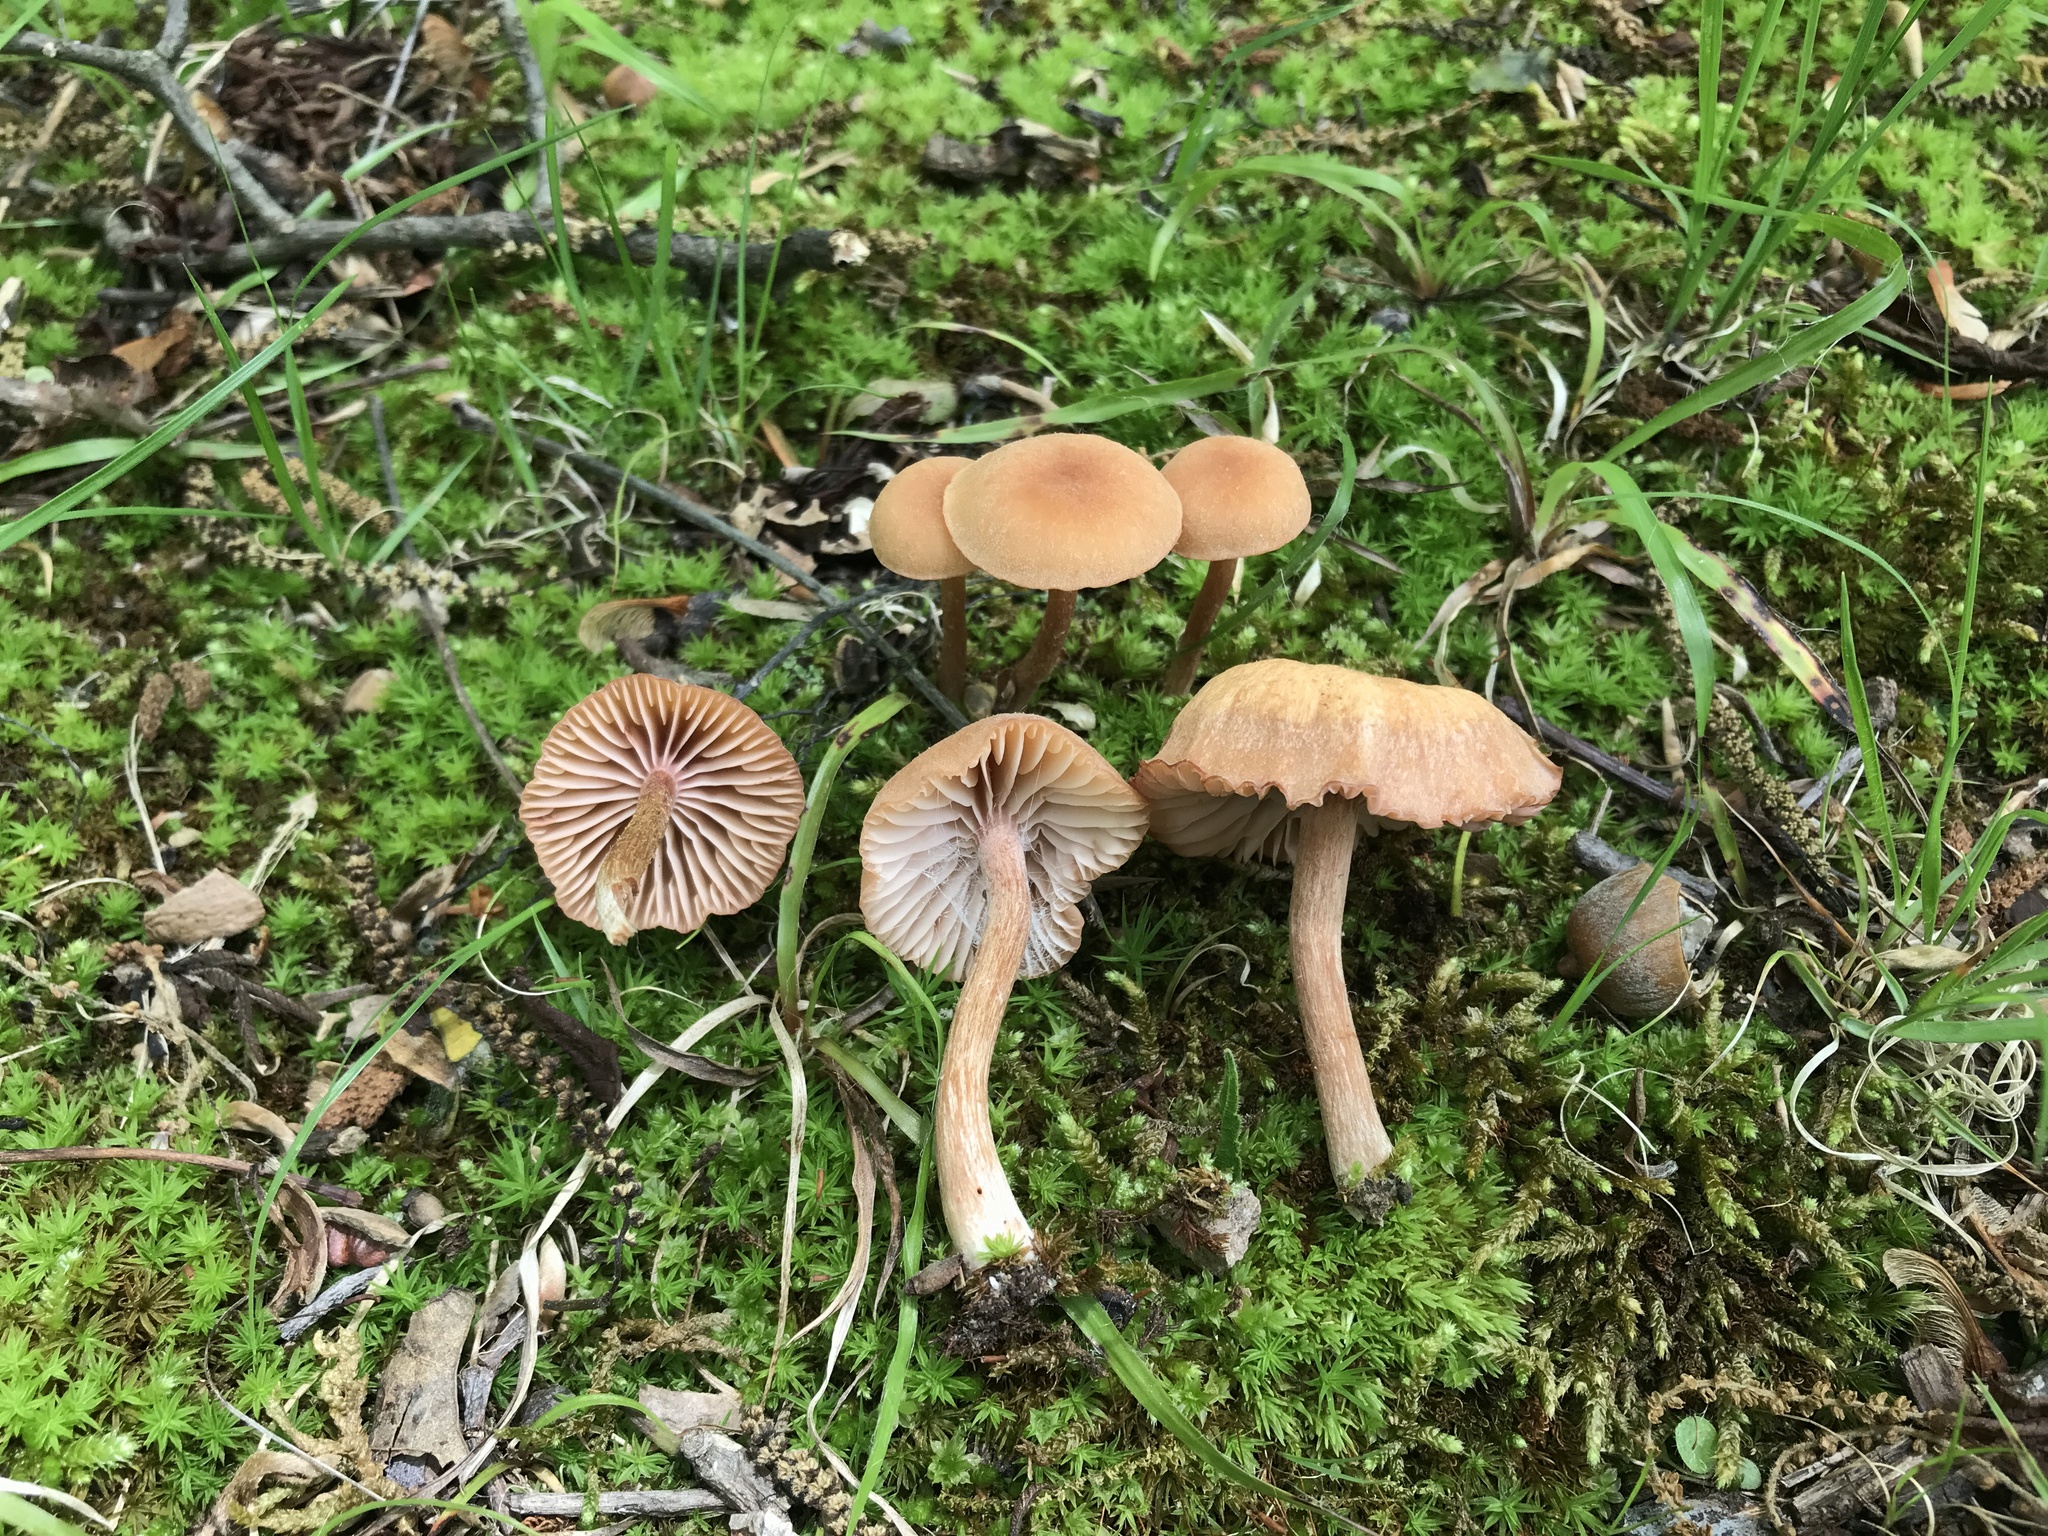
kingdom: Fungi
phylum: Basidiomycota
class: Agaricomycetes
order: Agaricales
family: Hydnangiaceae
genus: Laccaria
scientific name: Laccaria laccata
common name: Deceiver
